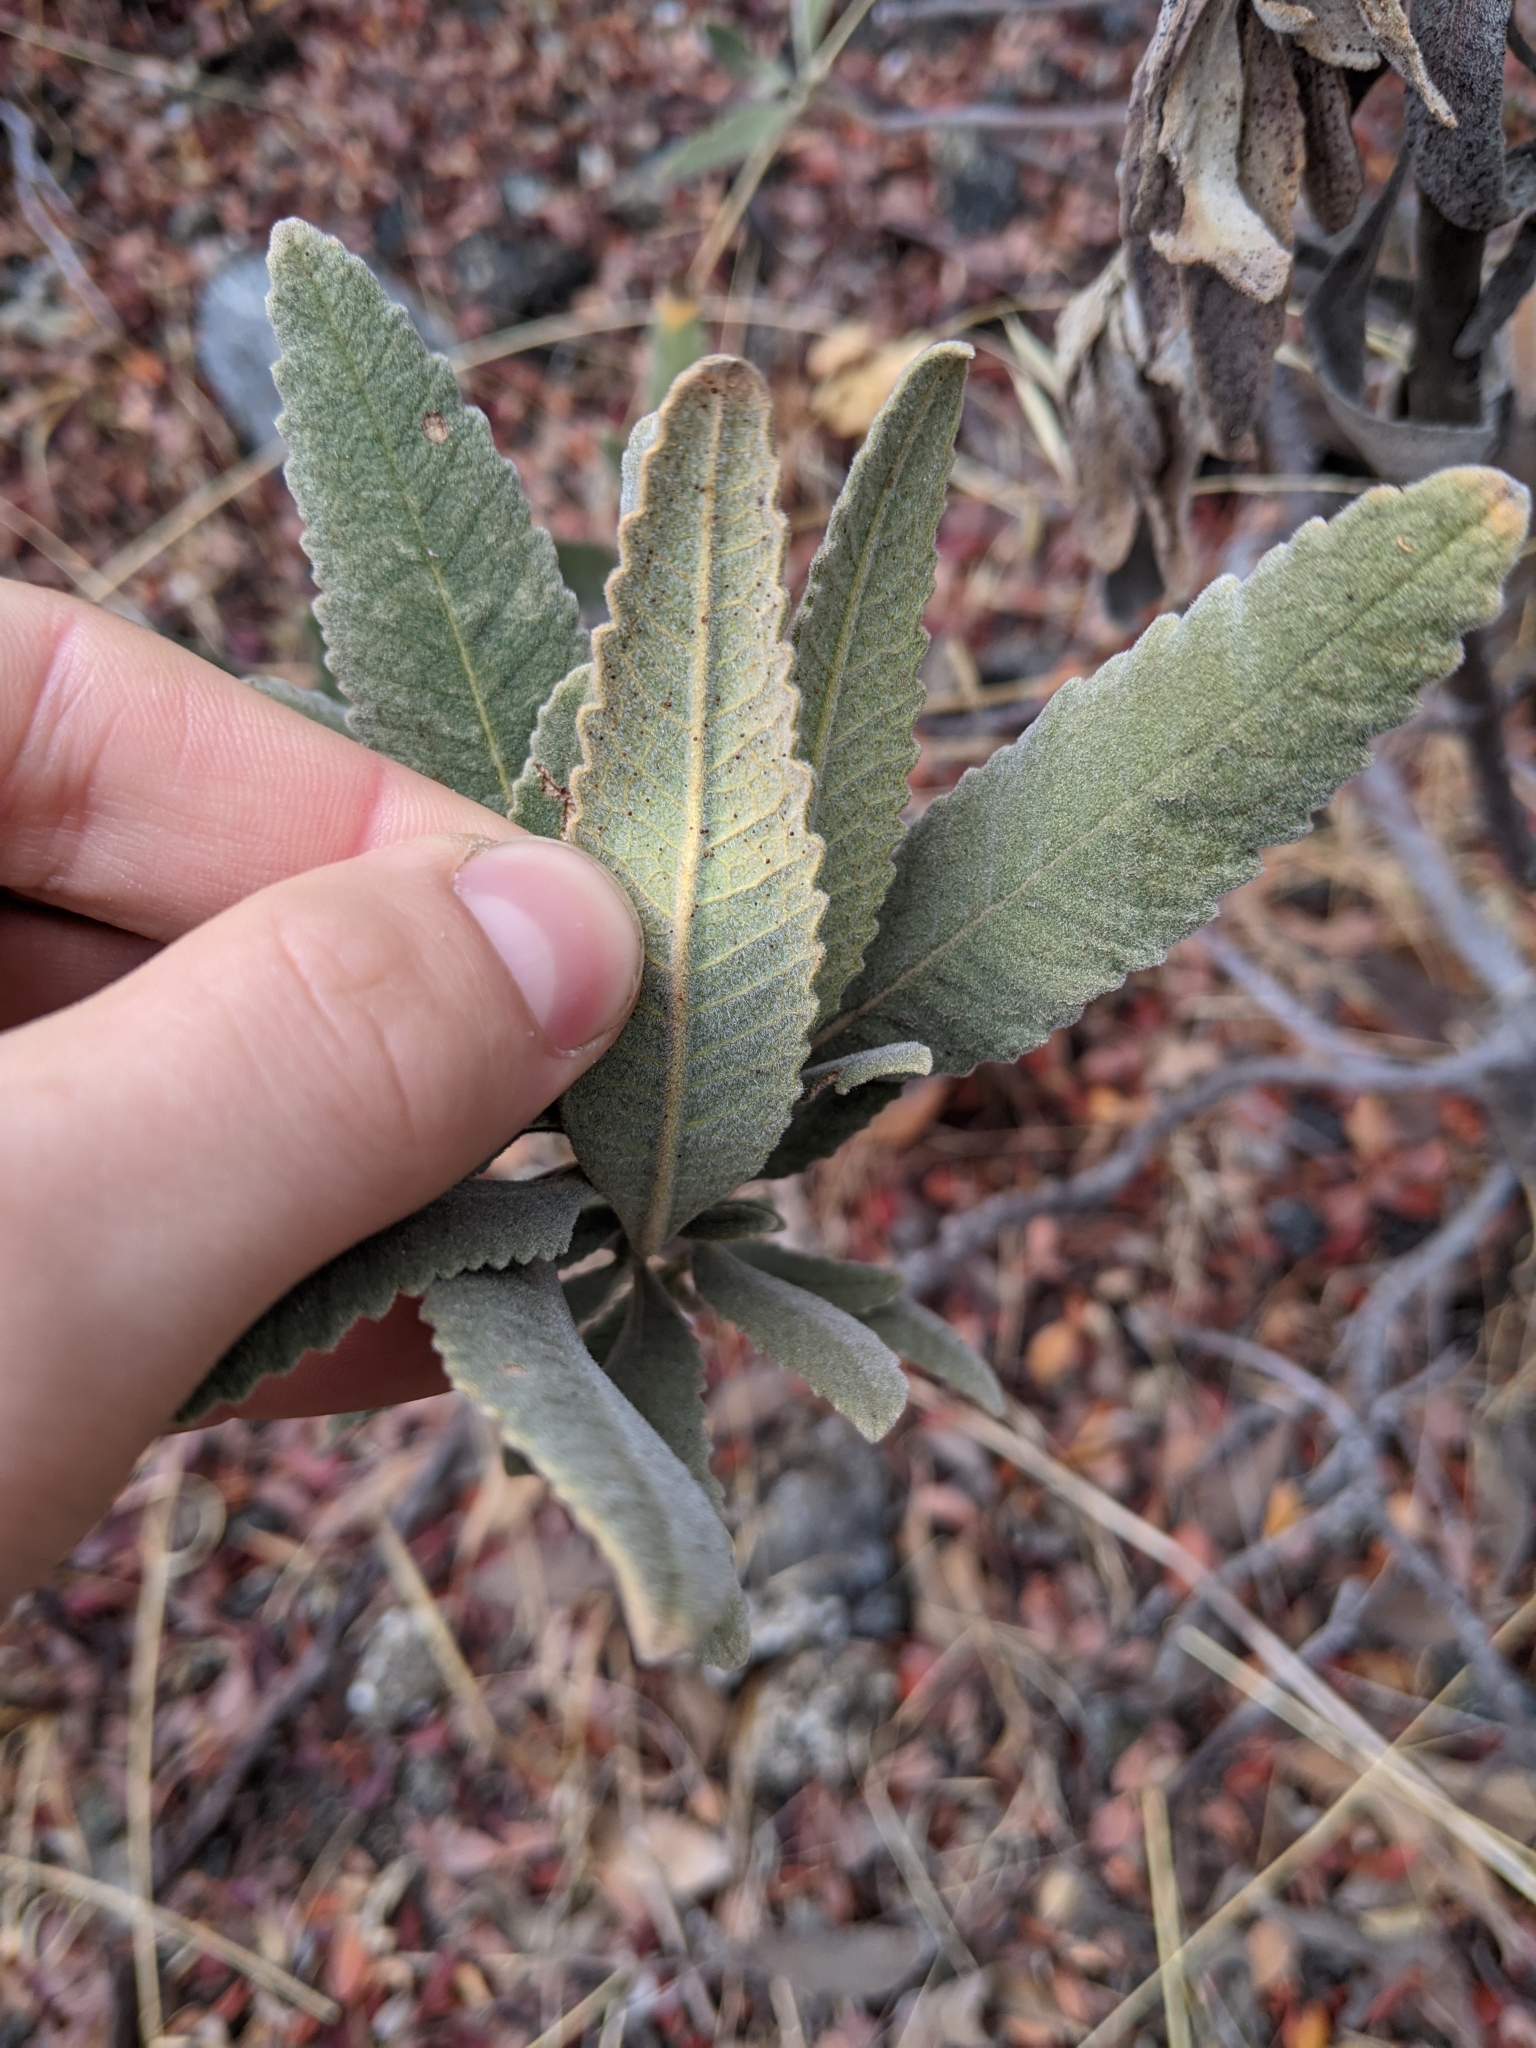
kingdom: Plantae
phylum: Tracheophyta
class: Magnoliopsida
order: Boraginales
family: Namaceae
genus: Eriodictyon
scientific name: Eriodictyon crassifolium
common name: Thick-leaf yerba-santa
